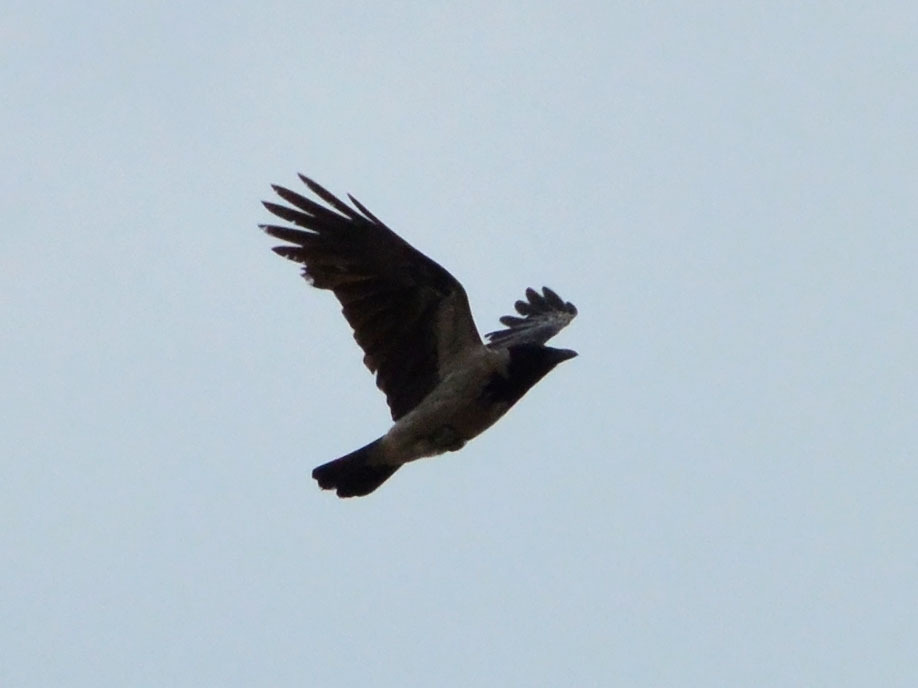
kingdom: Animalia
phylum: Chordata
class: Aves
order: Passeriformes
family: Corvidae
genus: Corvus
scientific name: Corvus cornix
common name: Hooded crow
